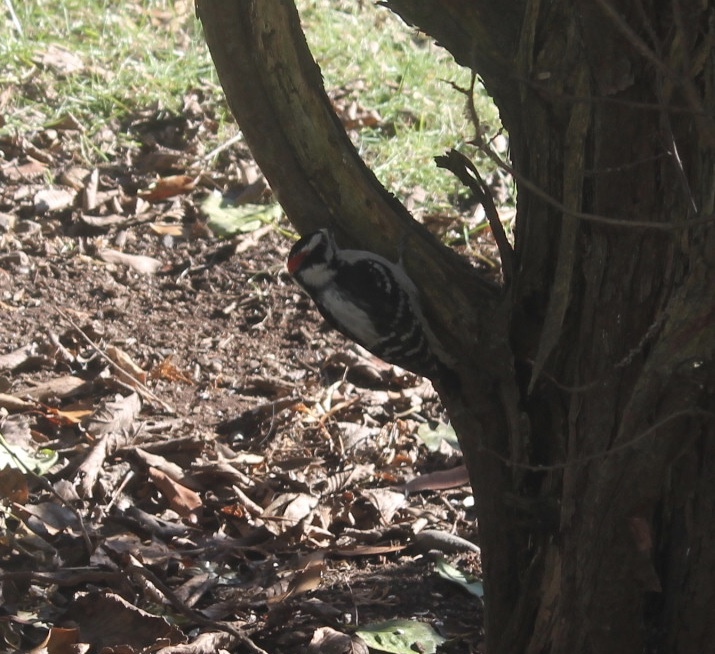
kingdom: Animalia
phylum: Chordata
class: Aves
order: Piciformes
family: Picidae
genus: Dryobates
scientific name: Dryobates pubescens
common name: Downy woodpecker
